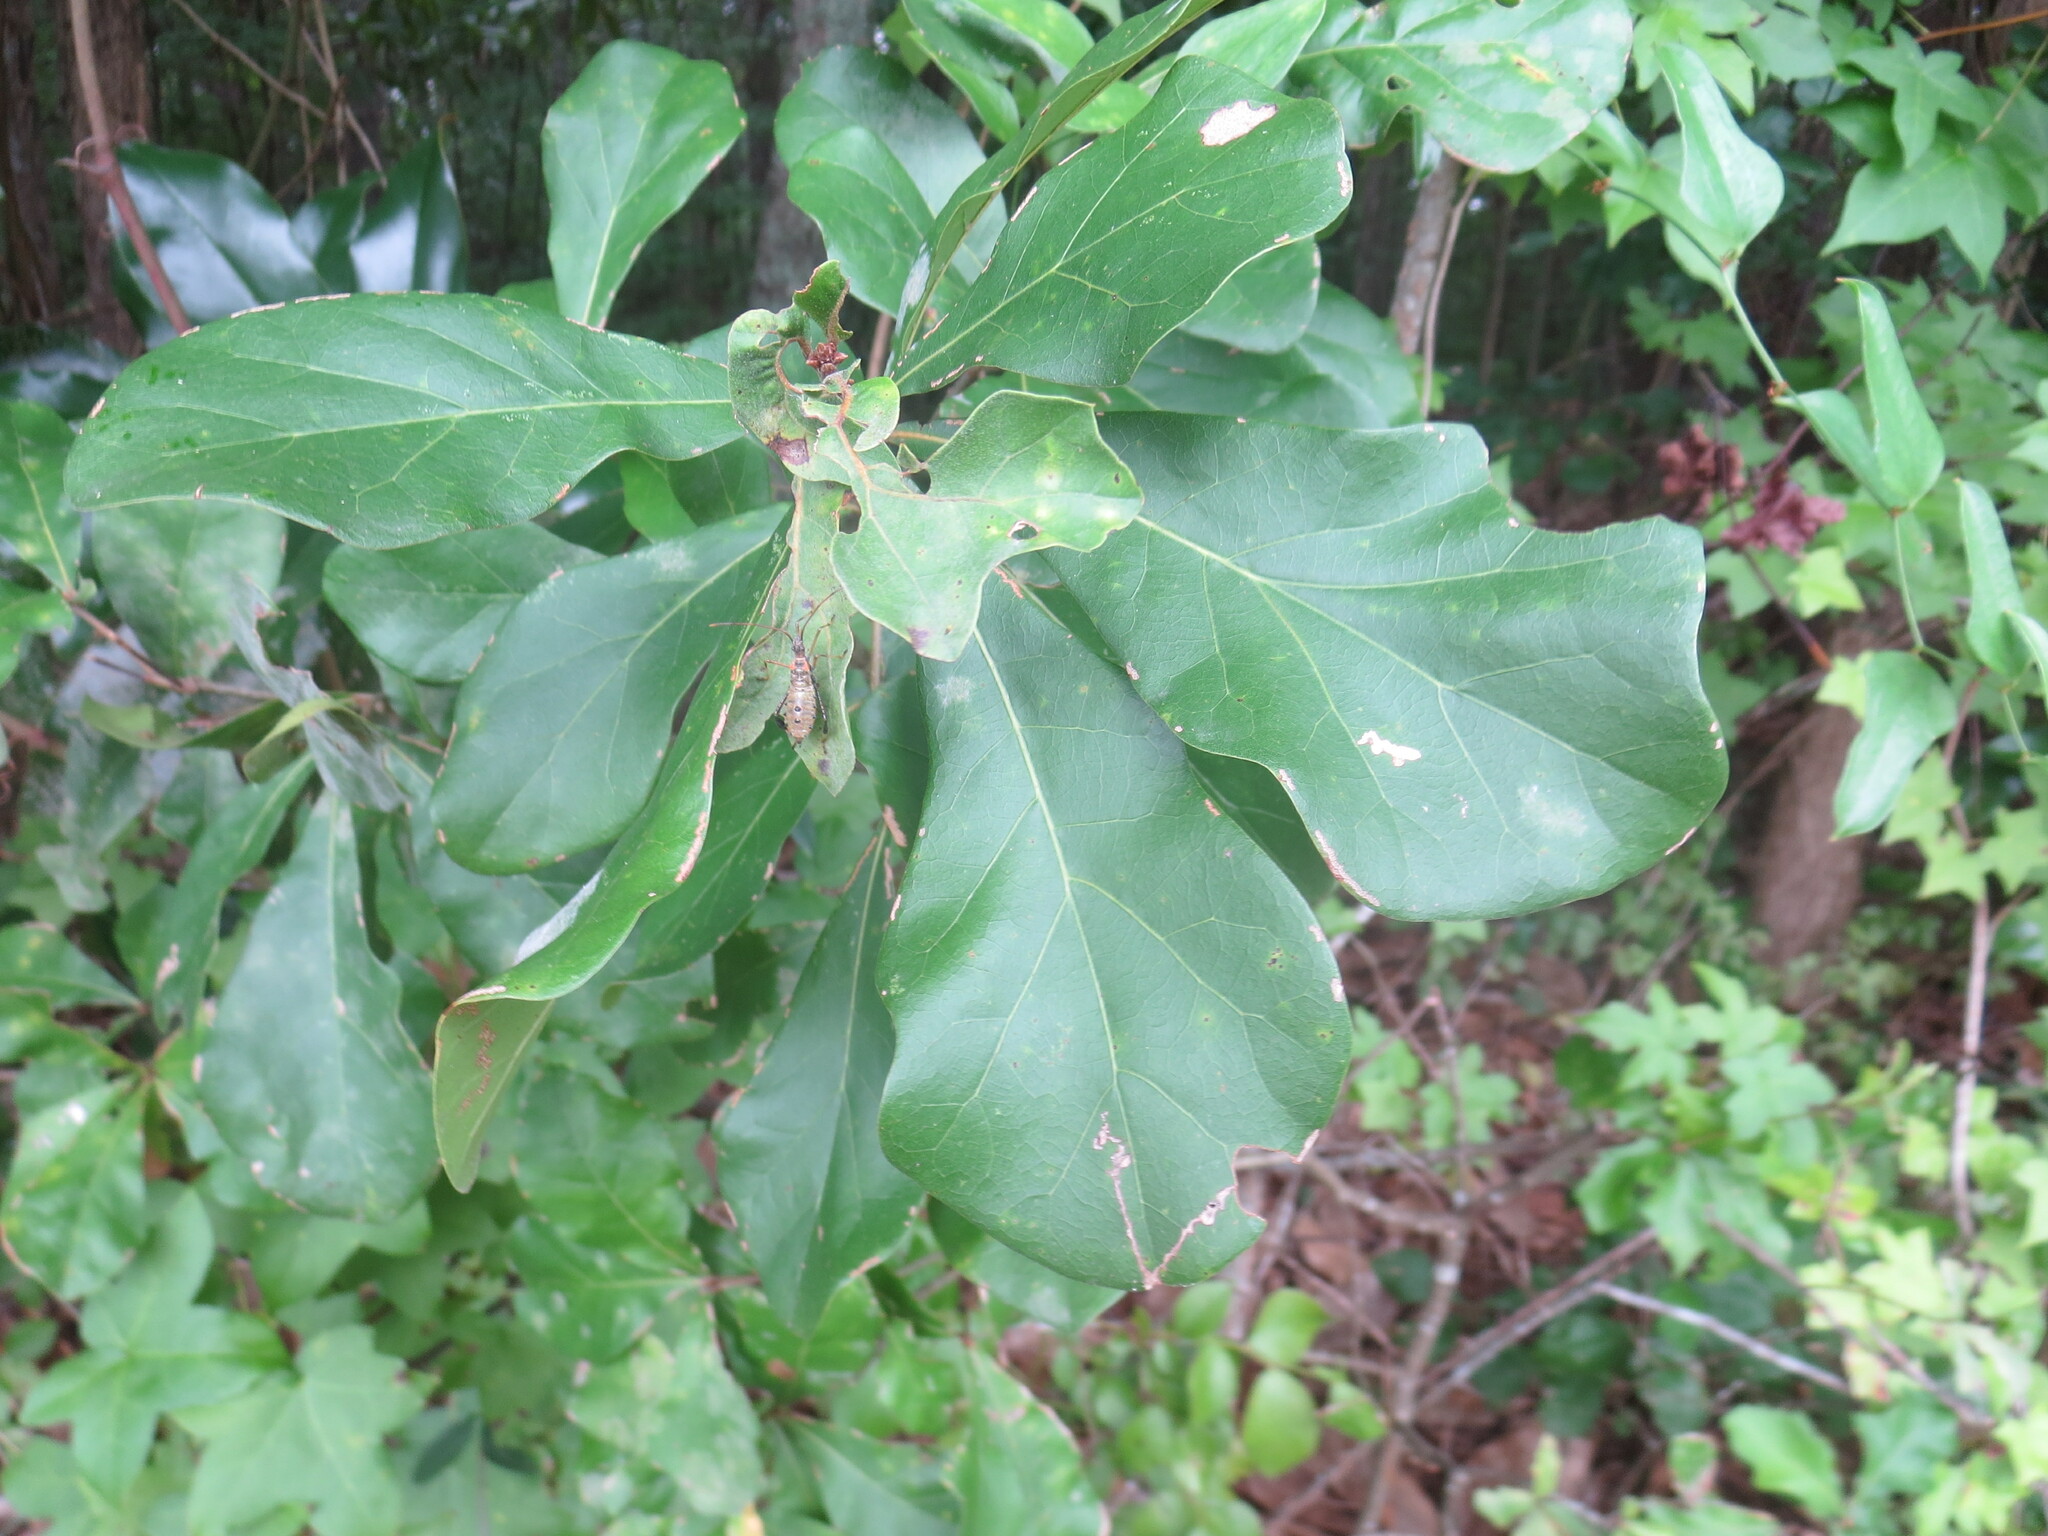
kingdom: Plantae
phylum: Tracheophyta
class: Magnoliopsida
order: Fagales
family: Fagaceae
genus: Quercus
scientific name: Quercus nigra
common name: Water oak
